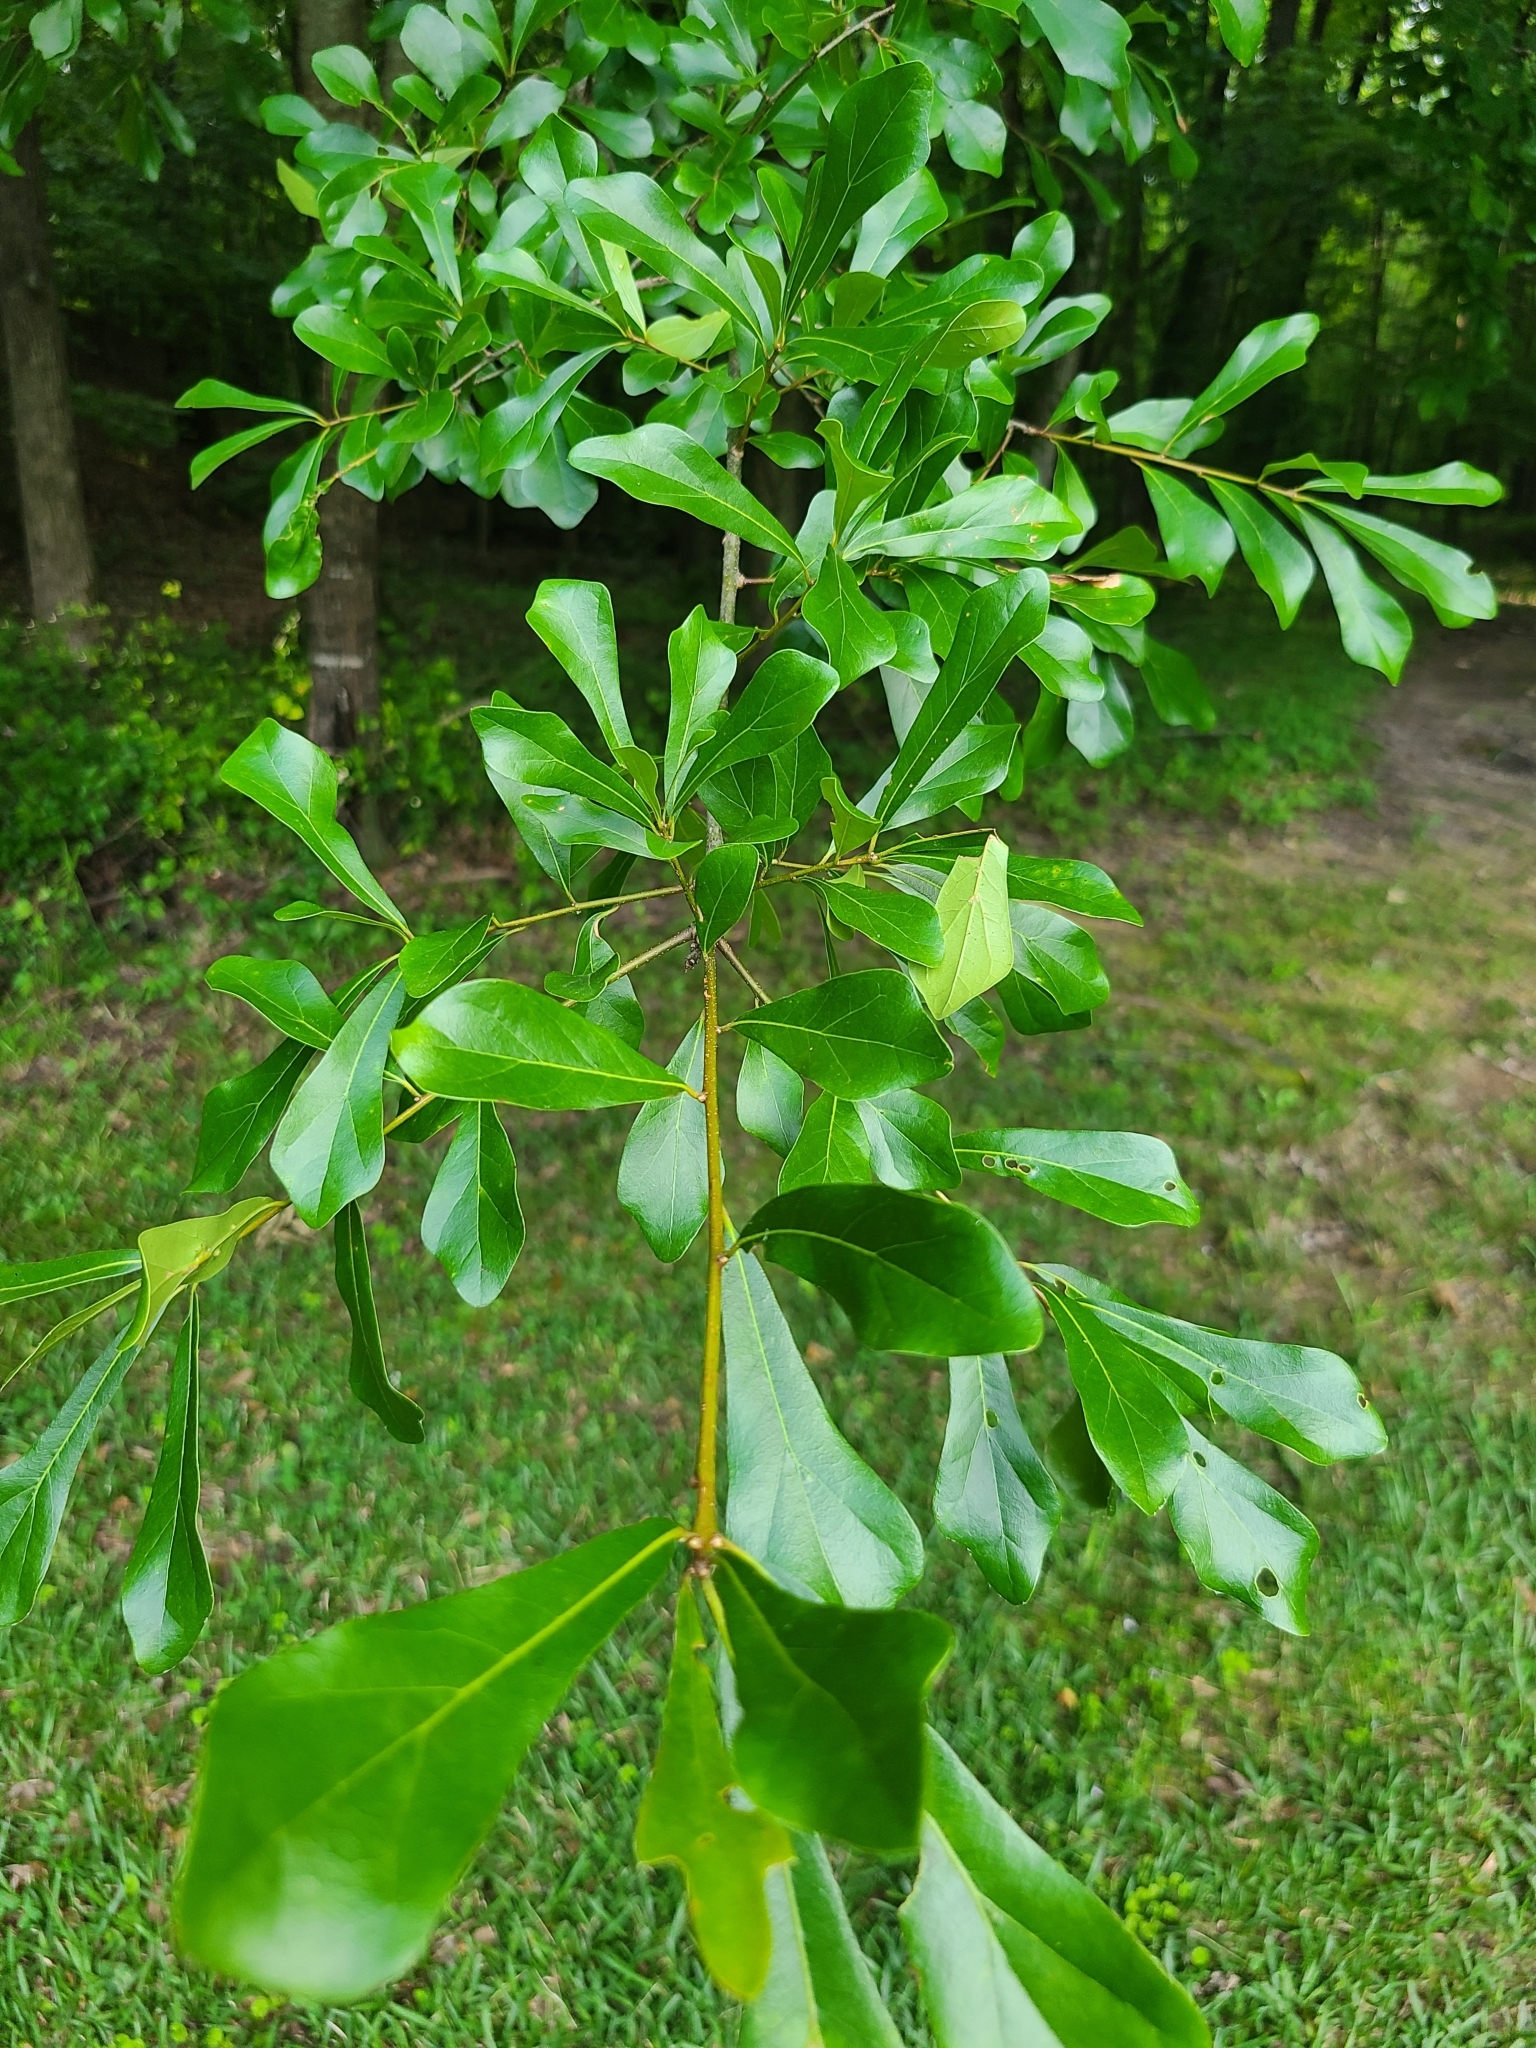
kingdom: Plantae
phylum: Tracheophyta
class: Magnoliopsida
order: Fagales
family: Fagaceae
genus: Quercus
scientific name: Quercus nigra
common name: Water oak
